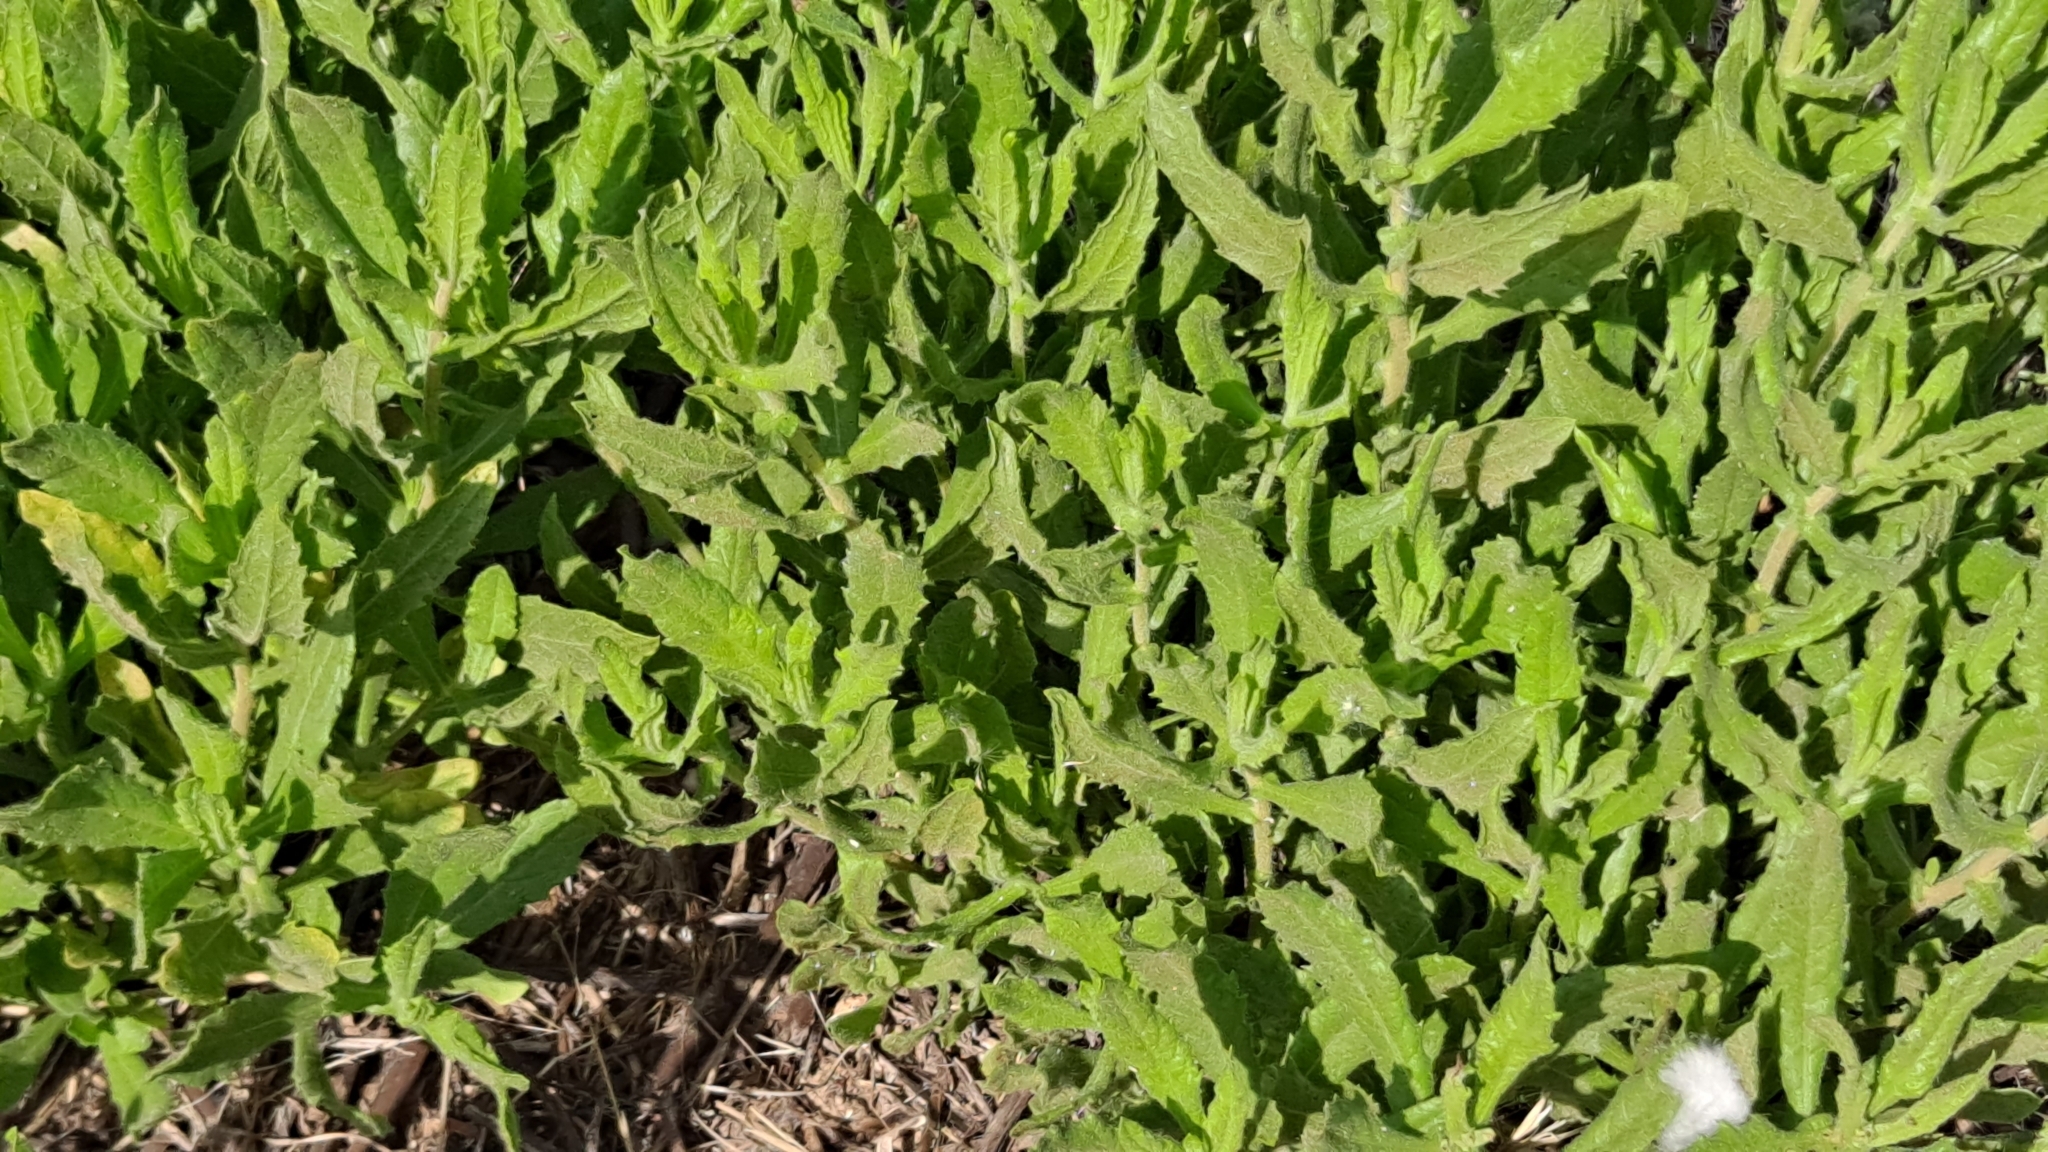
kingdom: Plantae
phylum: Tracheophyta
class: Magnoliopsida
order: Asterales
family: Asteraceae
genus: Dittrichia
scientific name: Dittrichia viscosa
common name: Woody fleabane
